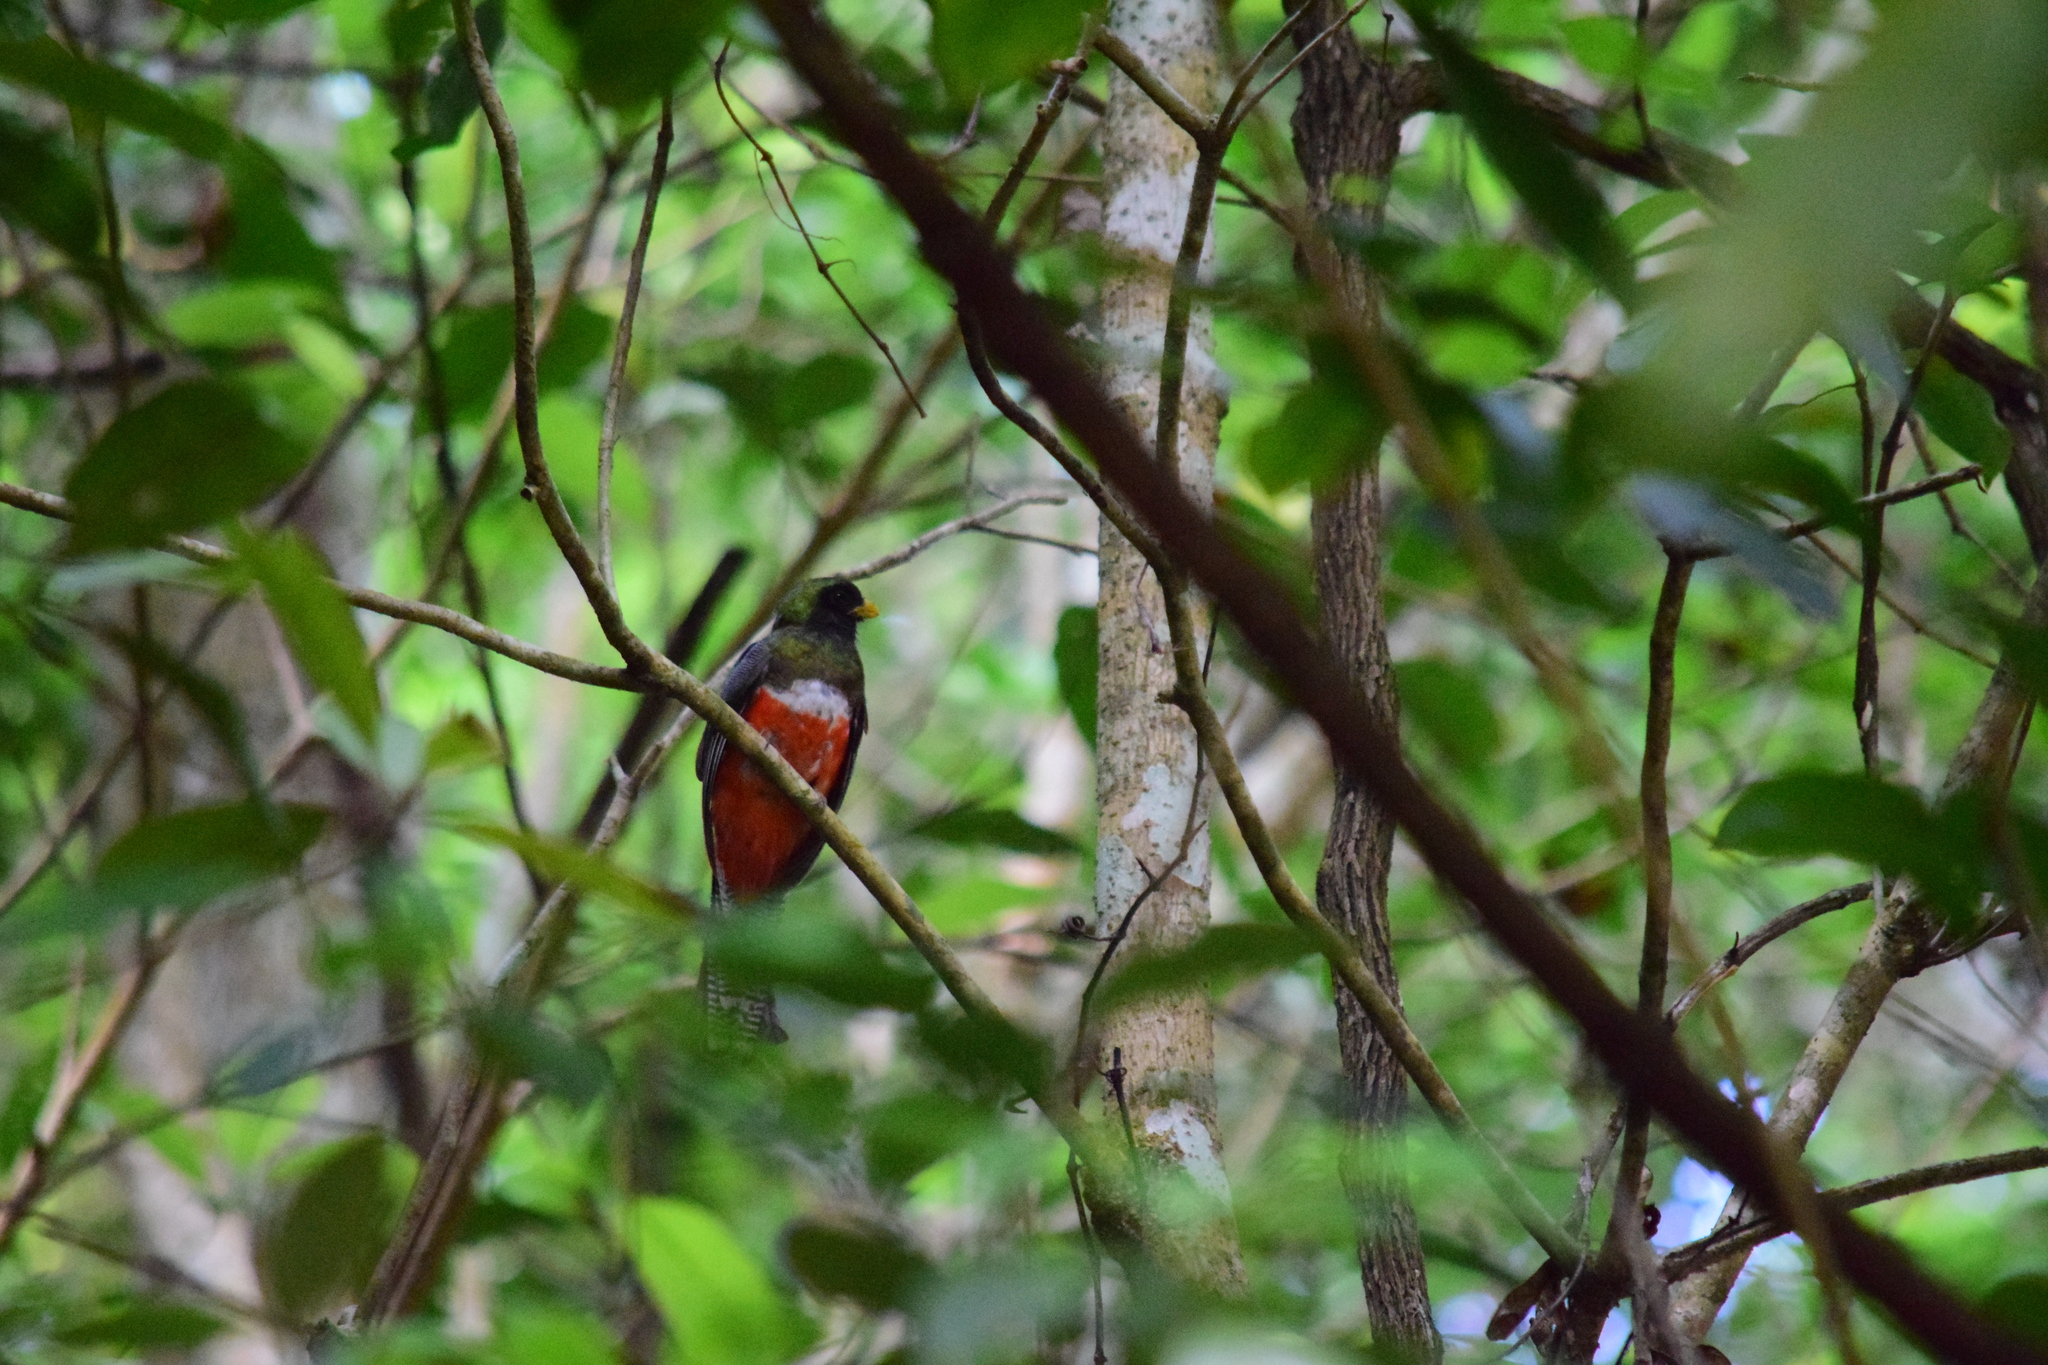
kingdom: Animalia
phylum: Chordata
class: Aves
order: Trogoniformes
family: Trogonidae
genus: Trogon
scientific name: Trogon collaris
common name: Collared trogon
